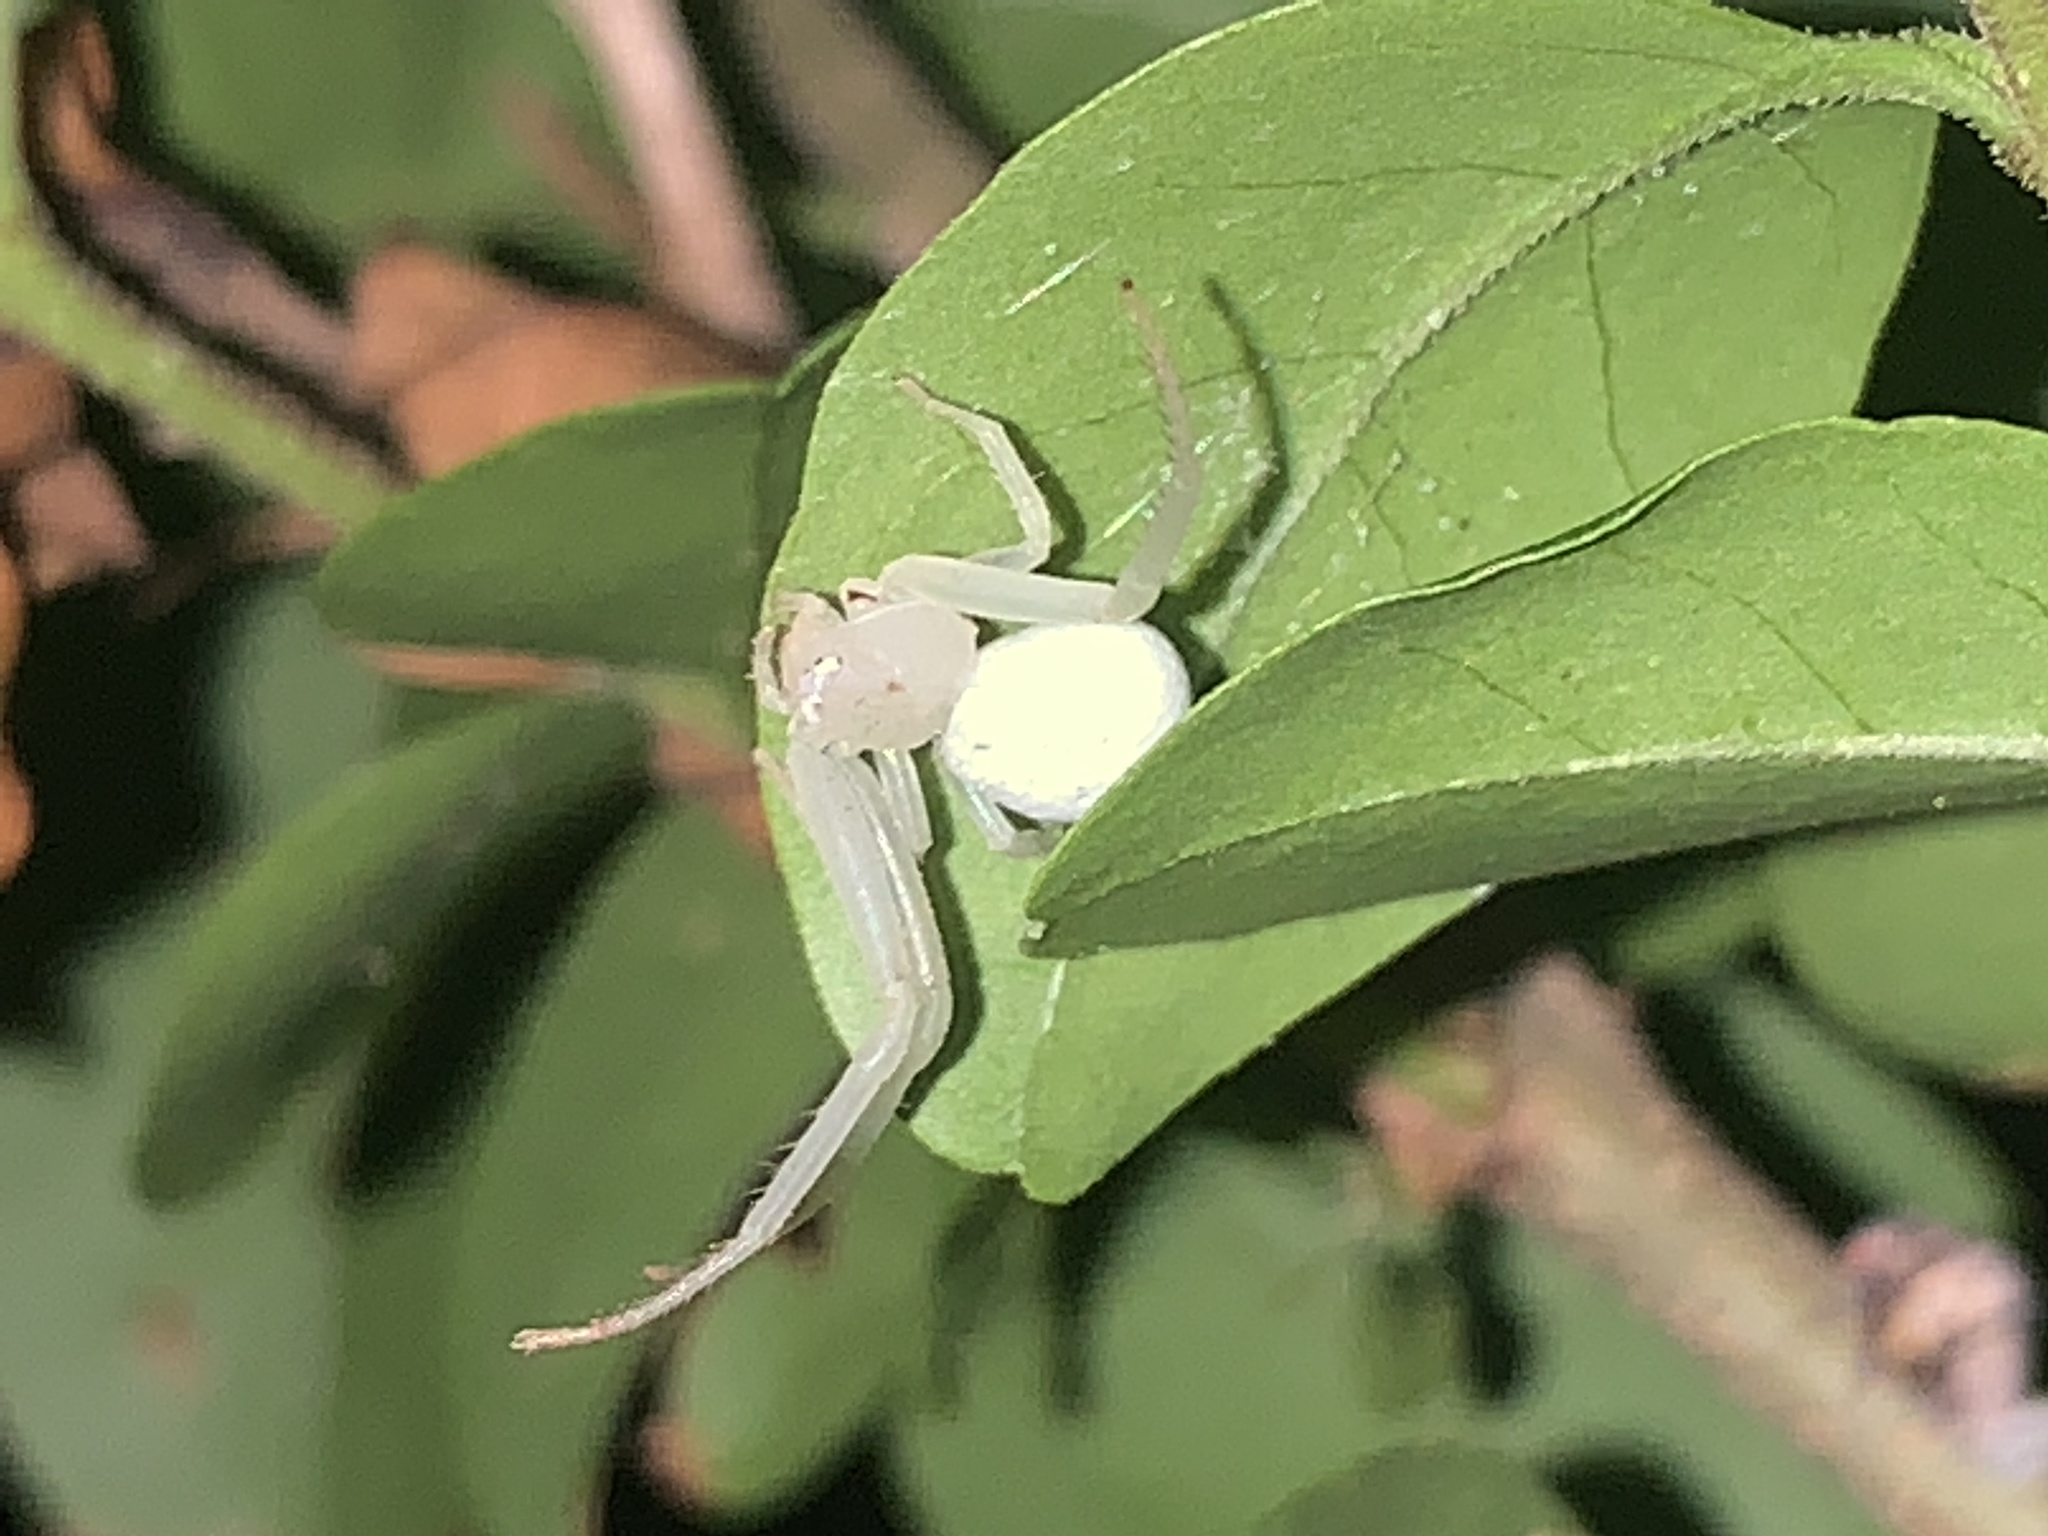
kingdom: Animalia
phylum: Arthropoda
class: Arachnida
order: Araneae
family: Thomisidae
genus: Misumessus
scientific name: Misumessus oblongus
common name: American green crab spider
